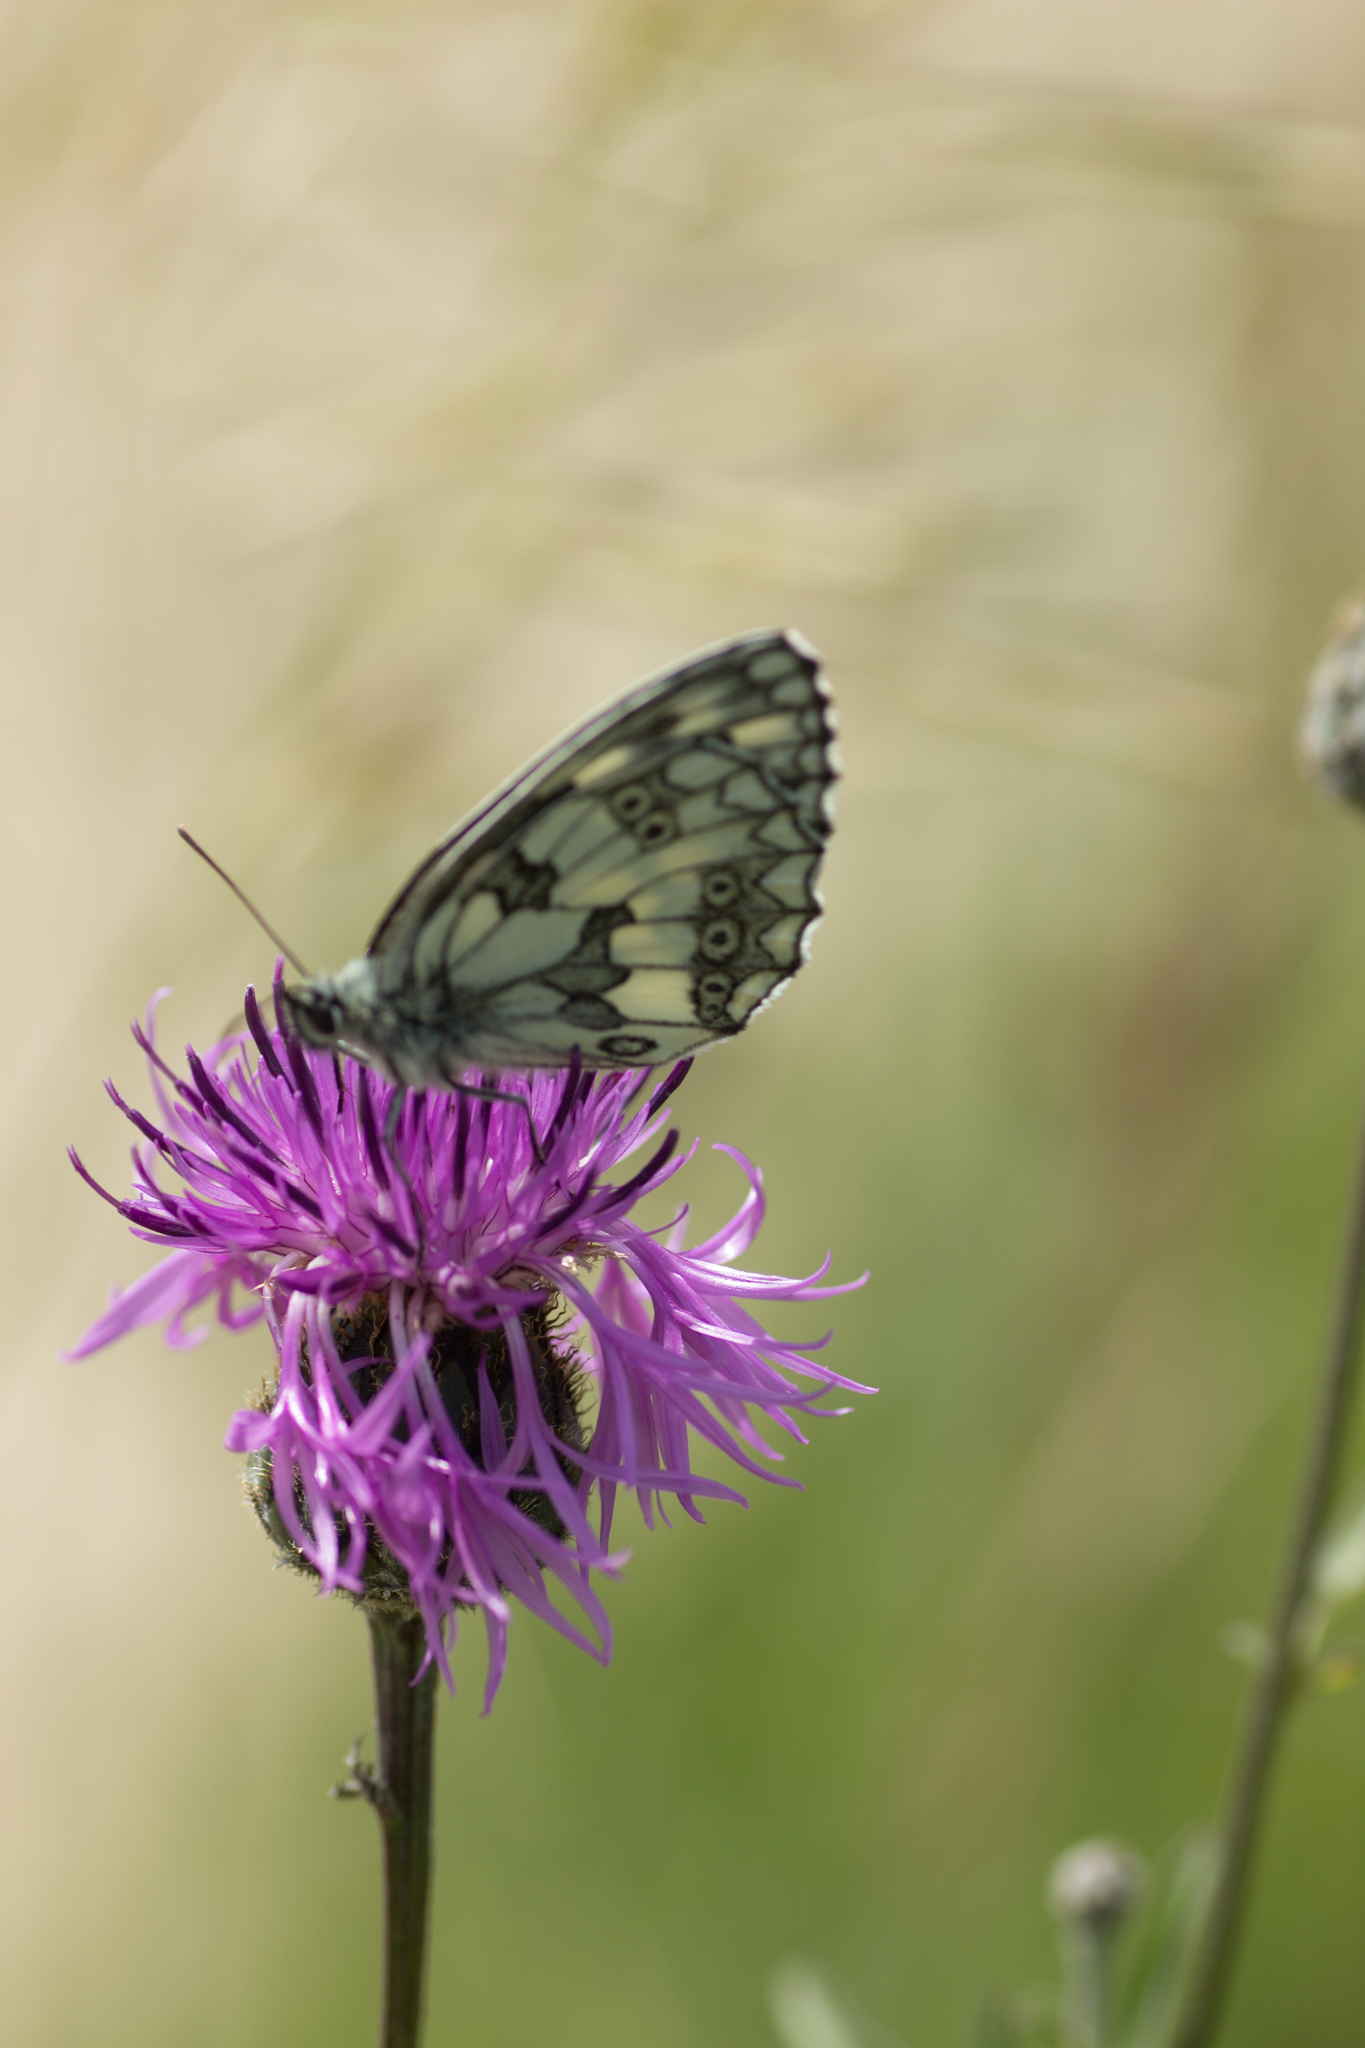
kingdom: Animalia
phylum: Arthropoda
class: Insecta
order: Lepidoptera
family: Nymphalidae
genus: Melanargia
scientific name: Melanargia galathea
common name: Marbled white
